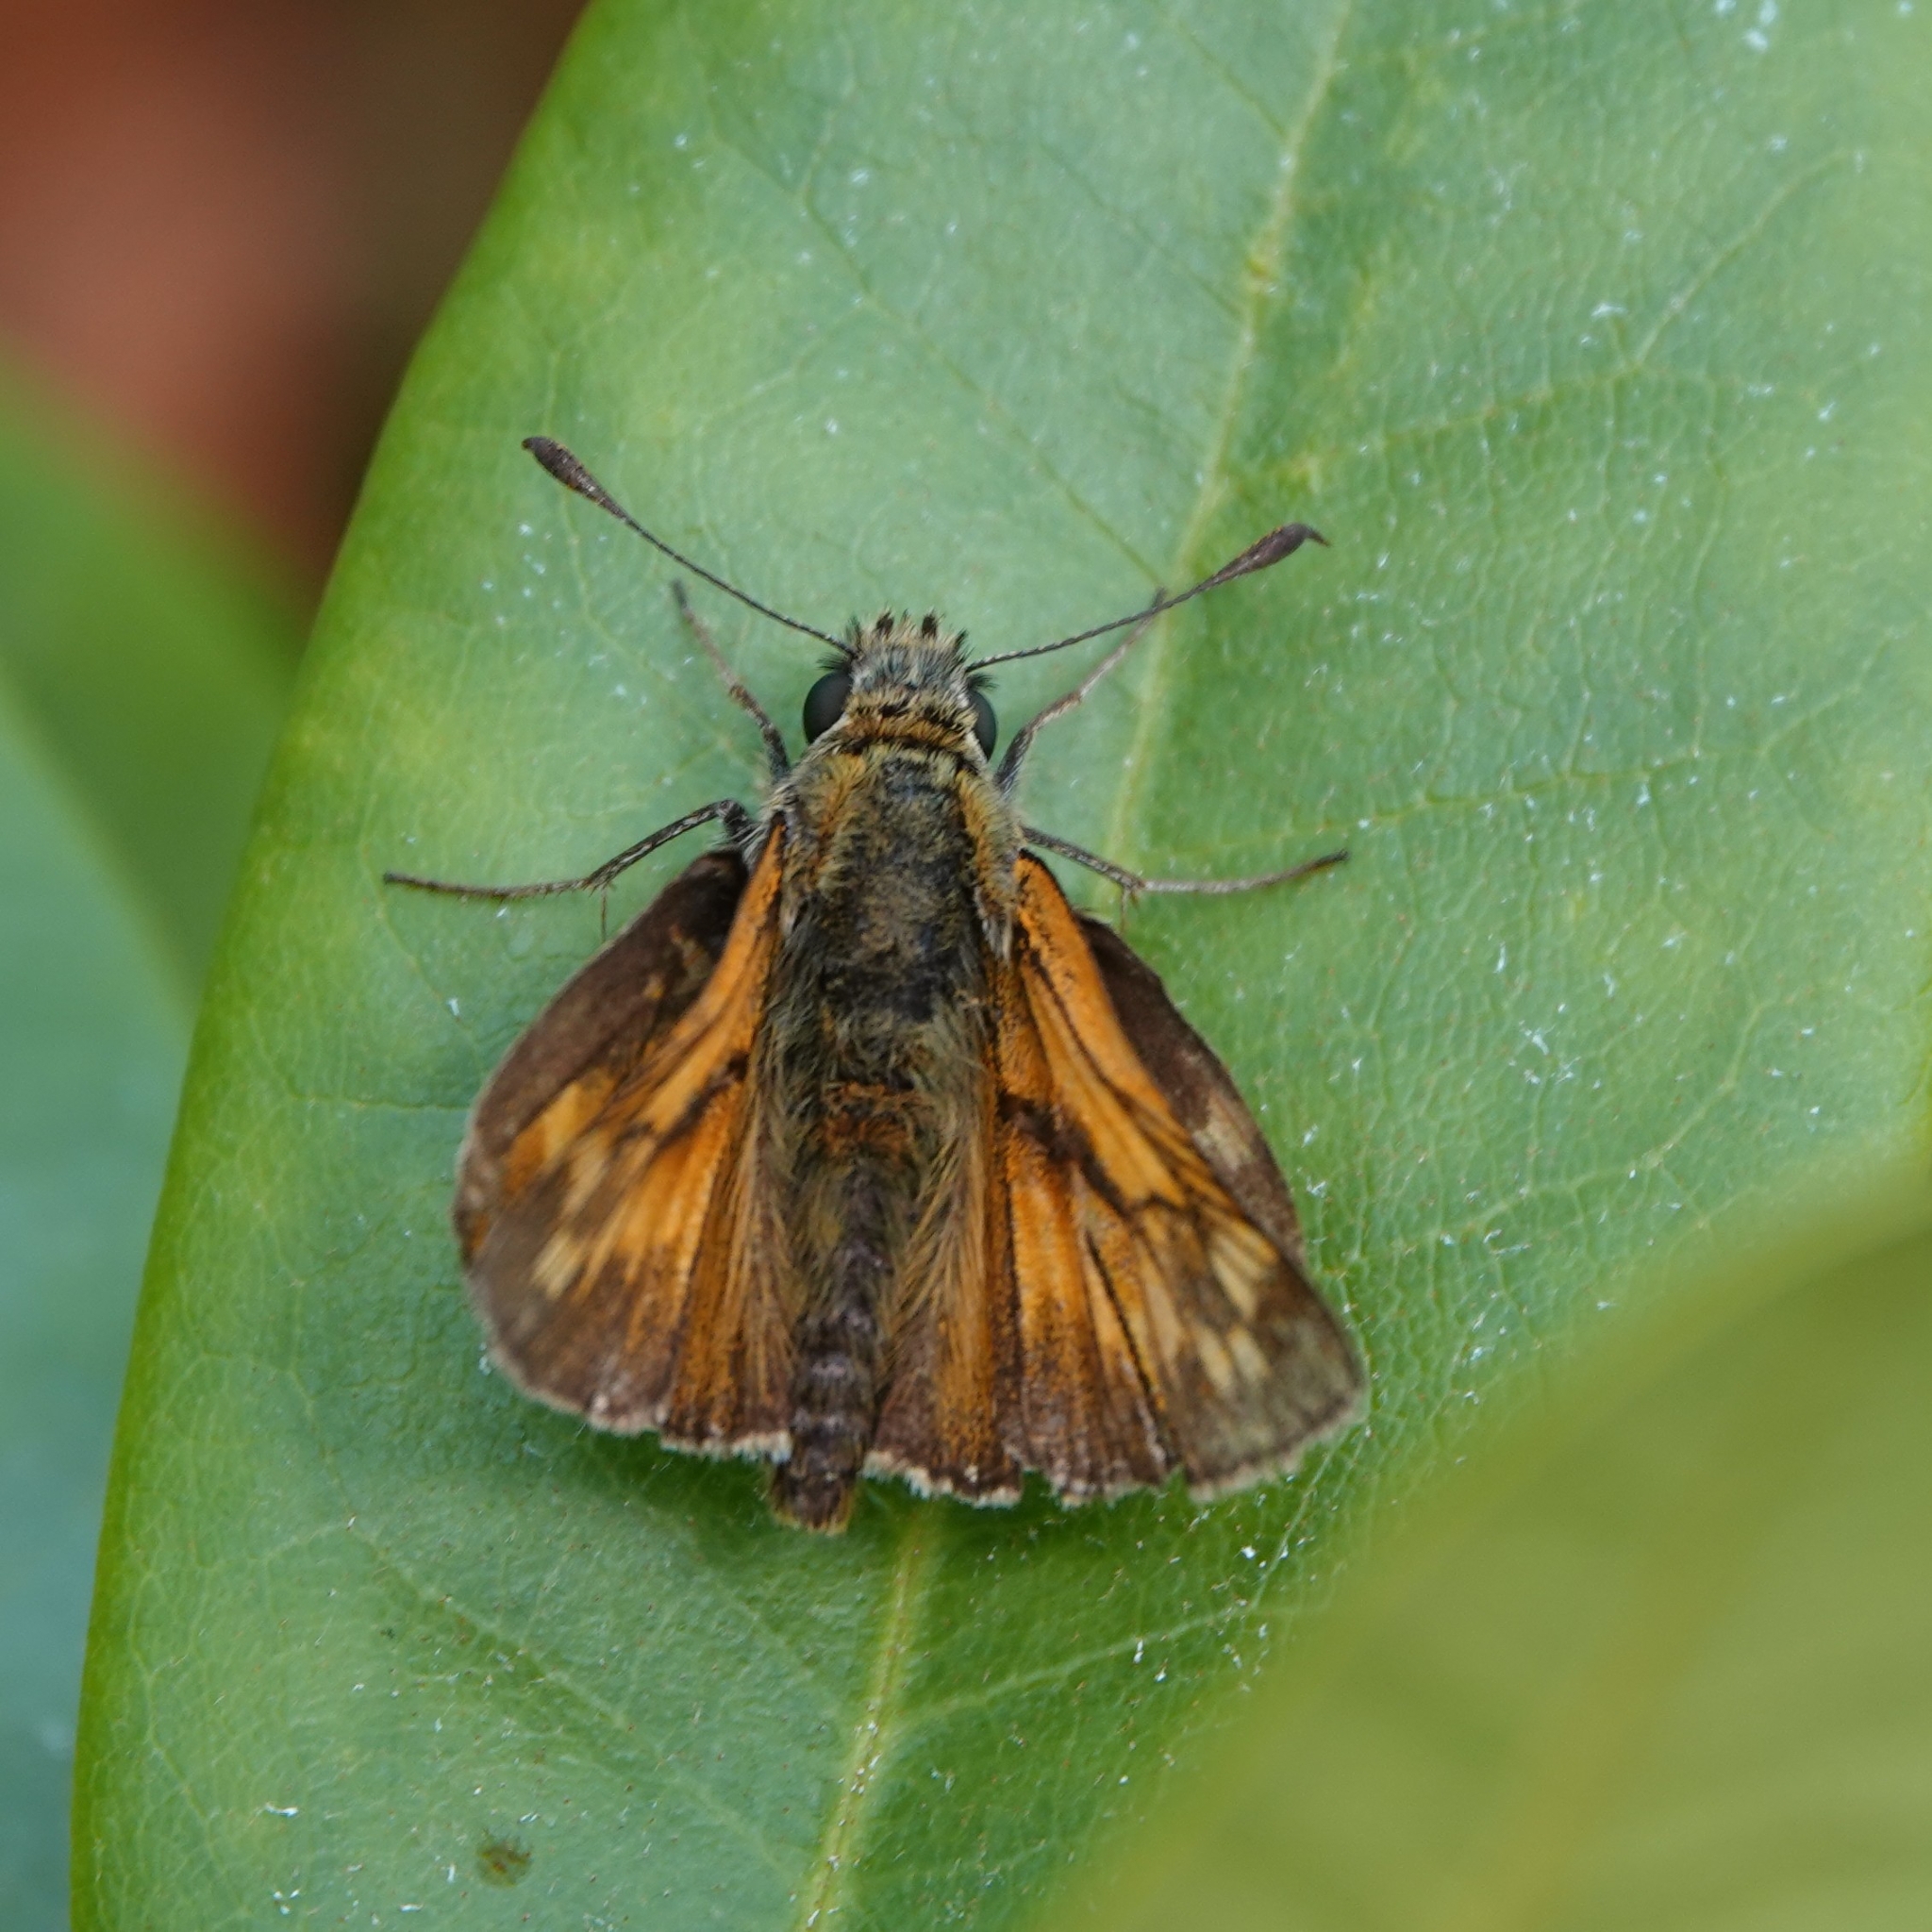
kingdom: Animalia
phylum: Arthropoda
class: Insecta
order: Lepidoptera
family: Hesperiidae
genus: Ochlodes
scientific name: Ochlodes venata
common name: Large skipper
